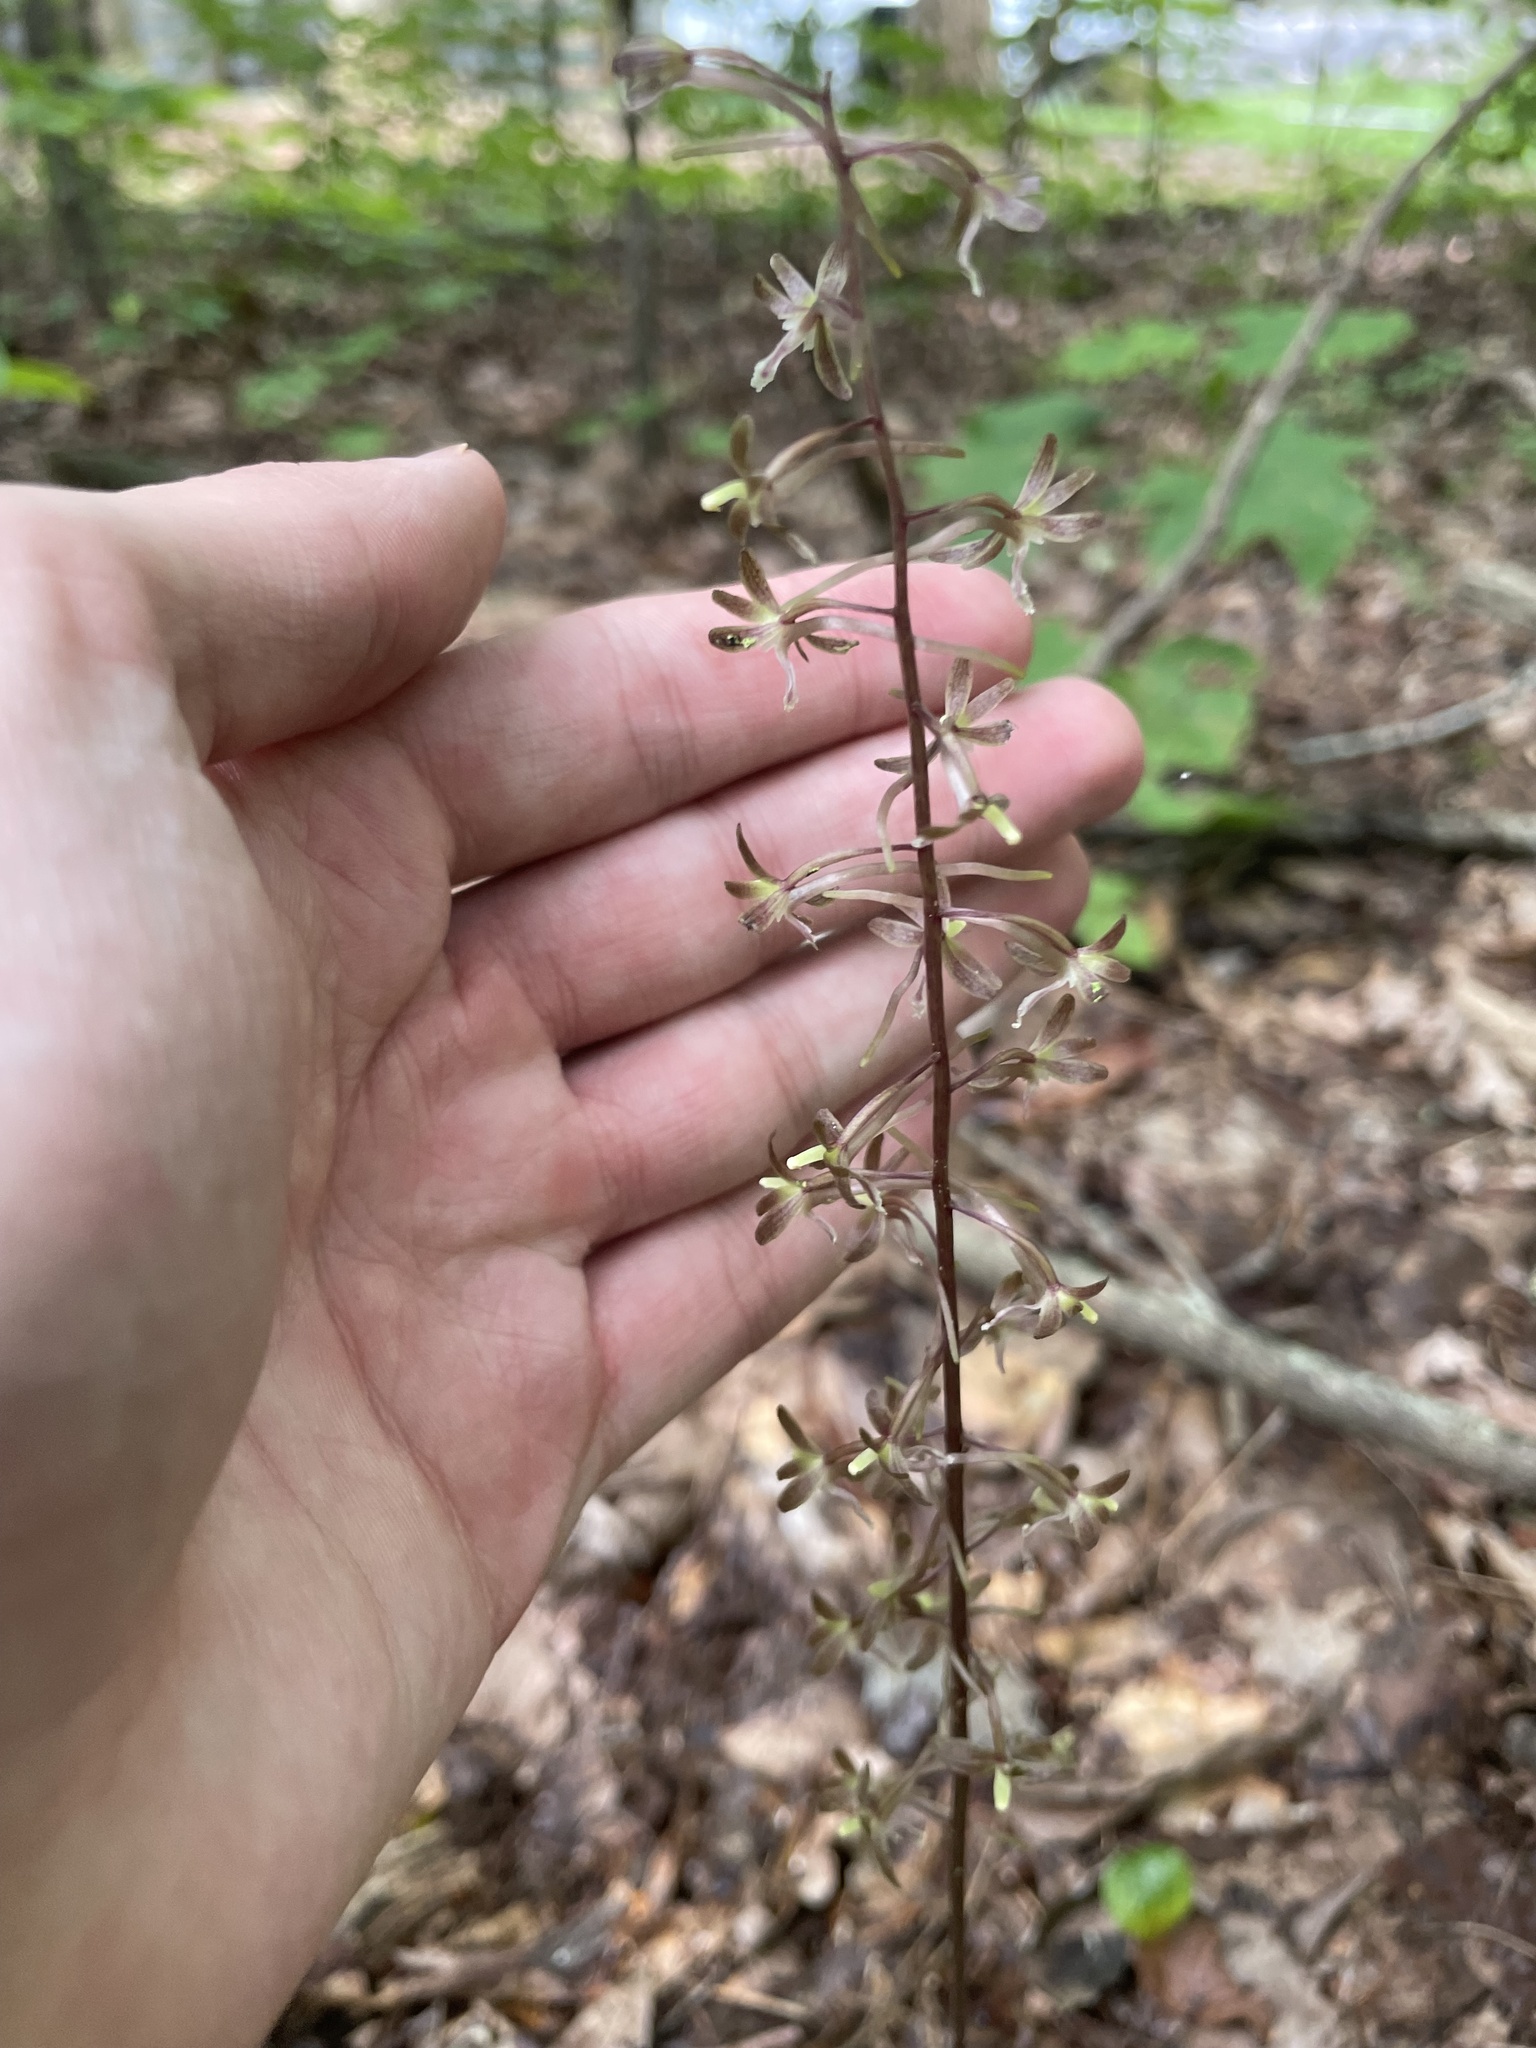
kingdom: Plantae
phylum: Tracheophyta
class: Liliopsida
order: Asparagales
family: Orchidaceae
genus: Tipularia
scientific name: Tipularia discolor
